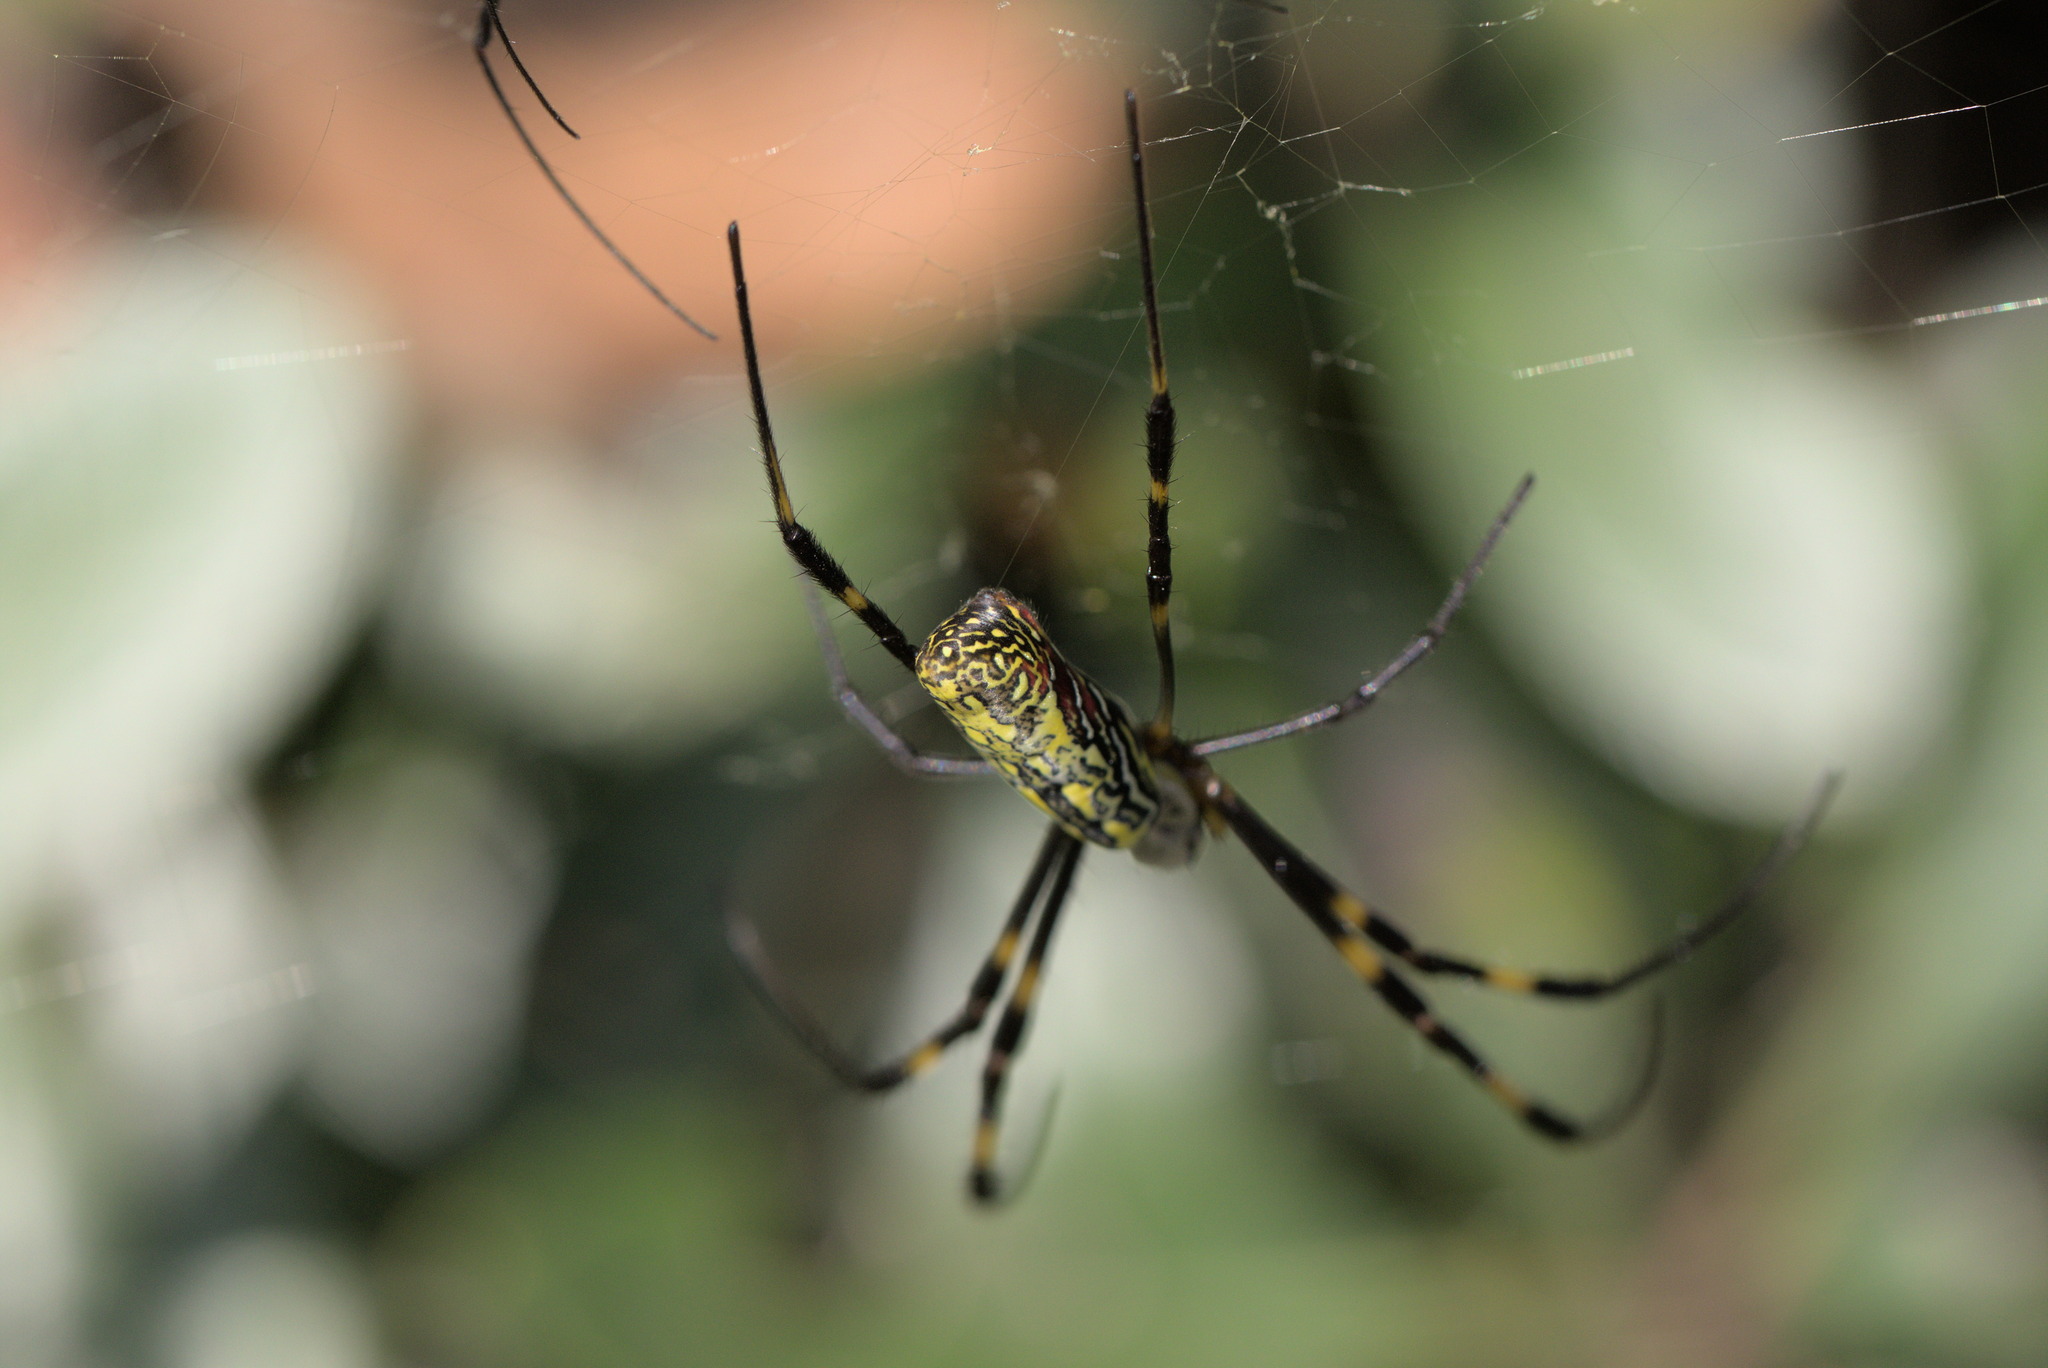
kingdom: Animalia
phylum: Arthropoda
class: Arachnida
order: Araneae
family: Araneidae
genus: Trichonephila
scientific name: Trichonephila clavata
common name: Jorō spider
